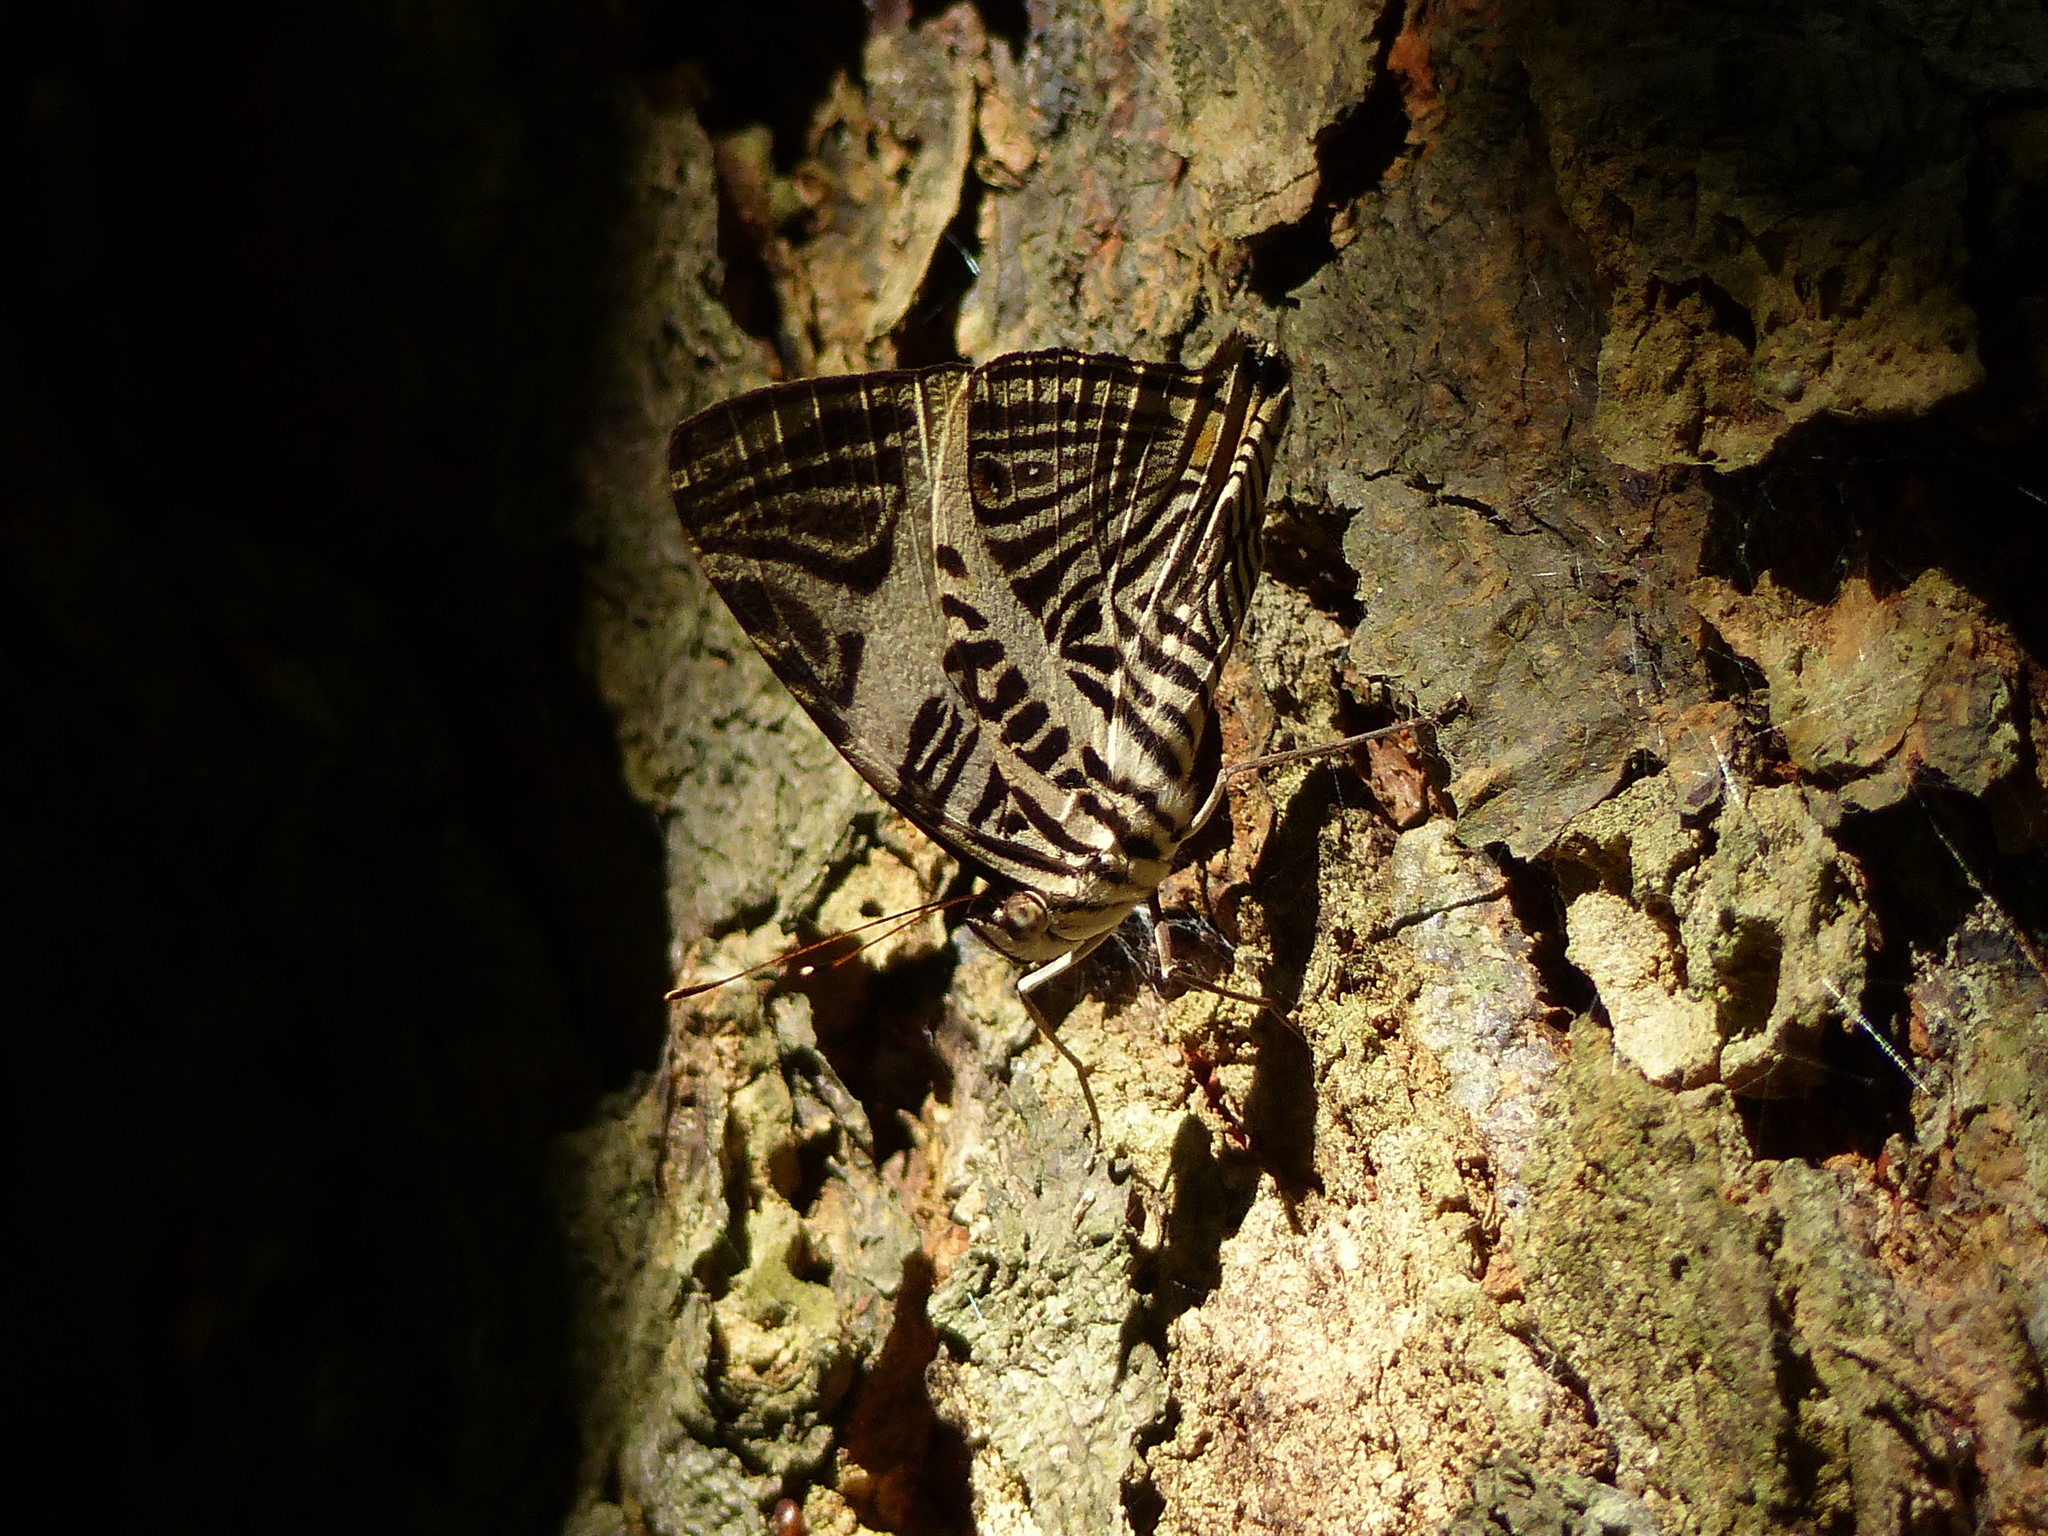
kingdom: Animalia
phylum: Arthropoda
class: Insecta
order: Lepidoptera
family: Nymphalidae
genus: Colobura
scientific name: Colobura dirce
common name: Dirce beauty
